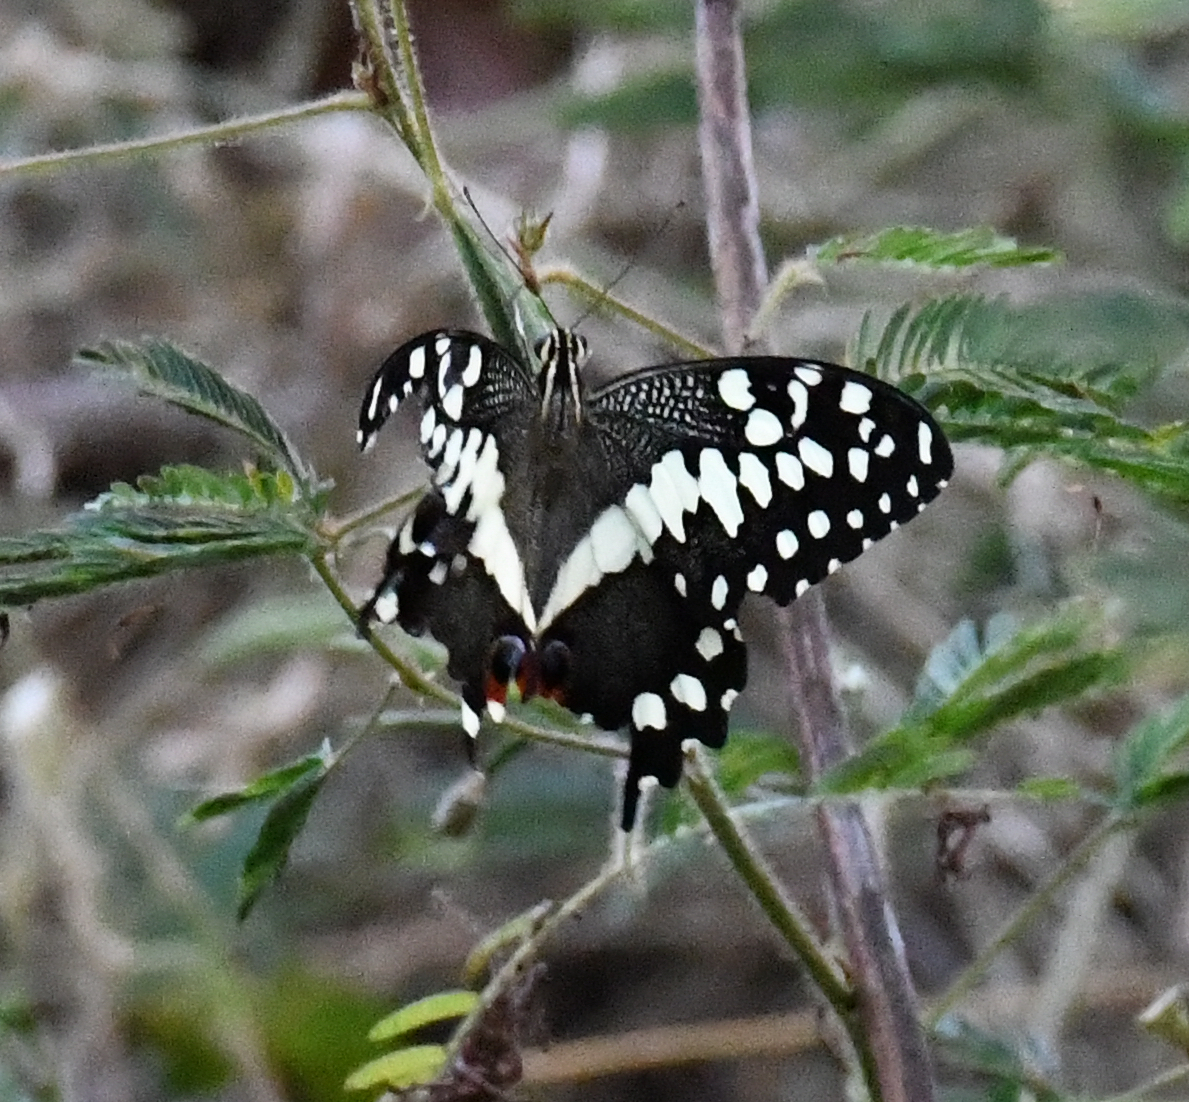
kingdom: Animalia
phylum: Arthropoda
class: Insecta
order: Lepidoptera
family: Papilionidae
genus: Papilio
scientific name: Papilio demodocus
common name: Christmas butterfly
